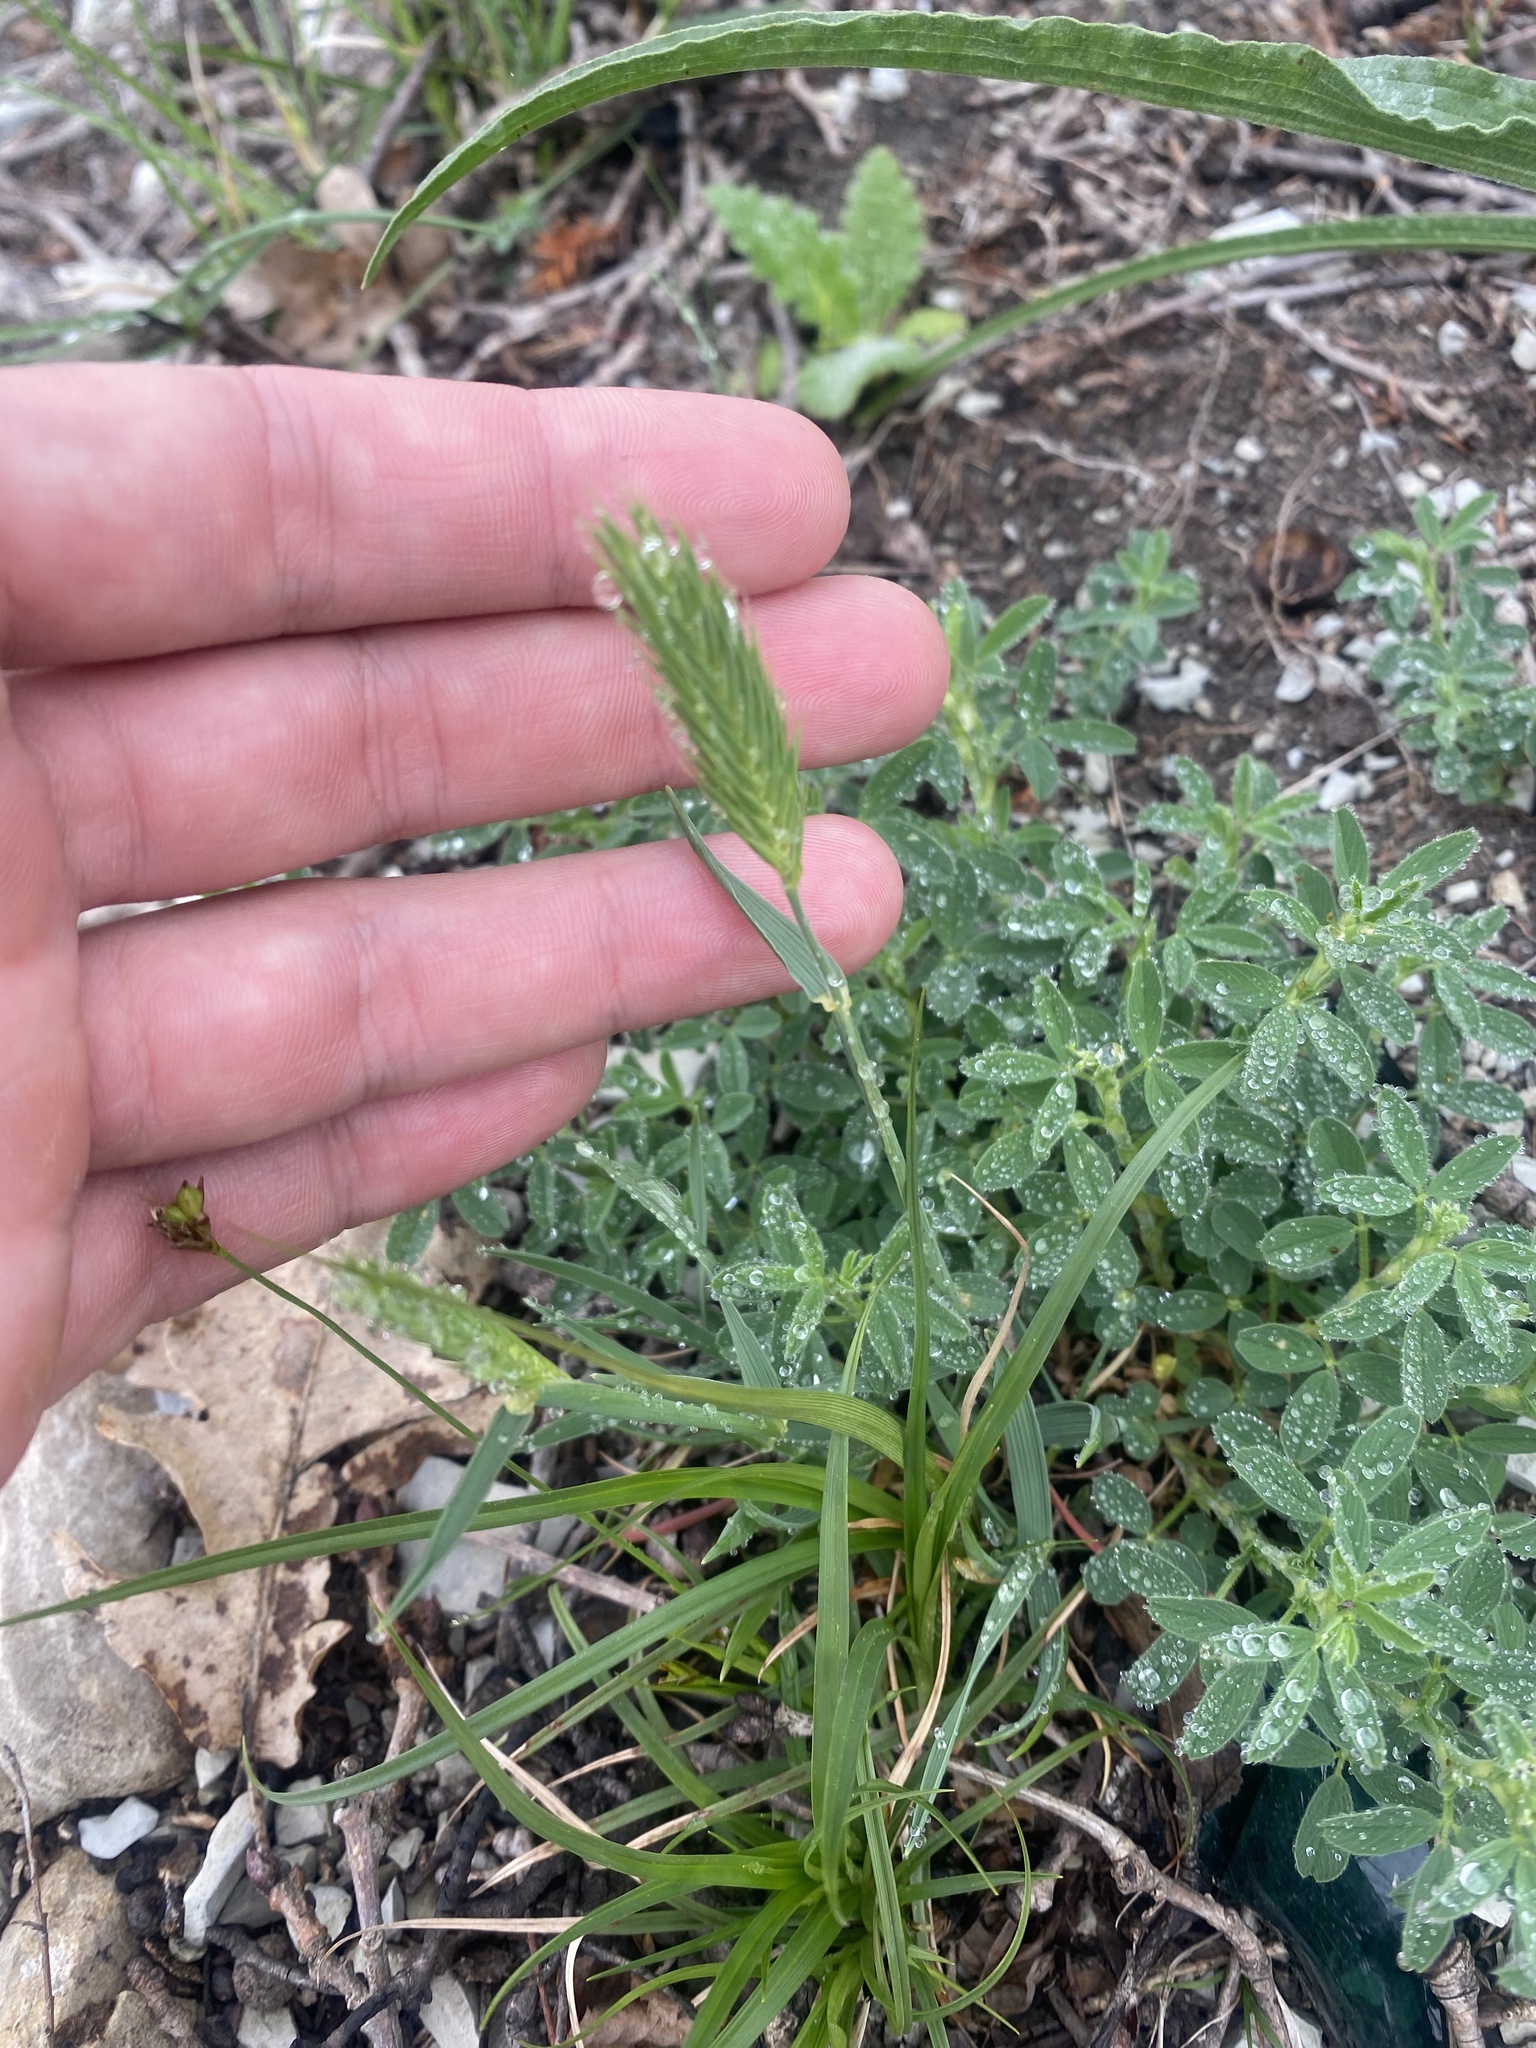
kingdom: Plantae
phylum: Tracheophyta
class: Liliopsida
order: Poales
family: Poaceae
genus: Agropyron
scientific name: Agropyron cristatum
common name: Crested wheatgrass
